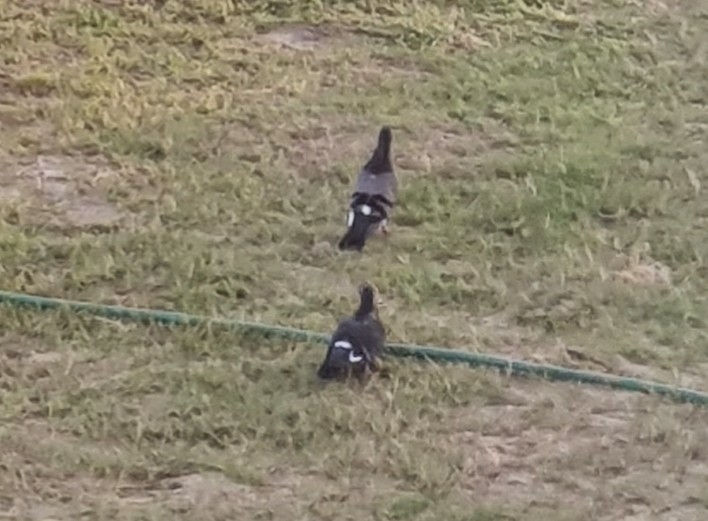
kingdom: Animalia
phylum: Chordata
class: Aves
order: Columbiformes
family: Columbidae
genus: Columba
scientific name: Columba livia
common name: Rock pigeon
